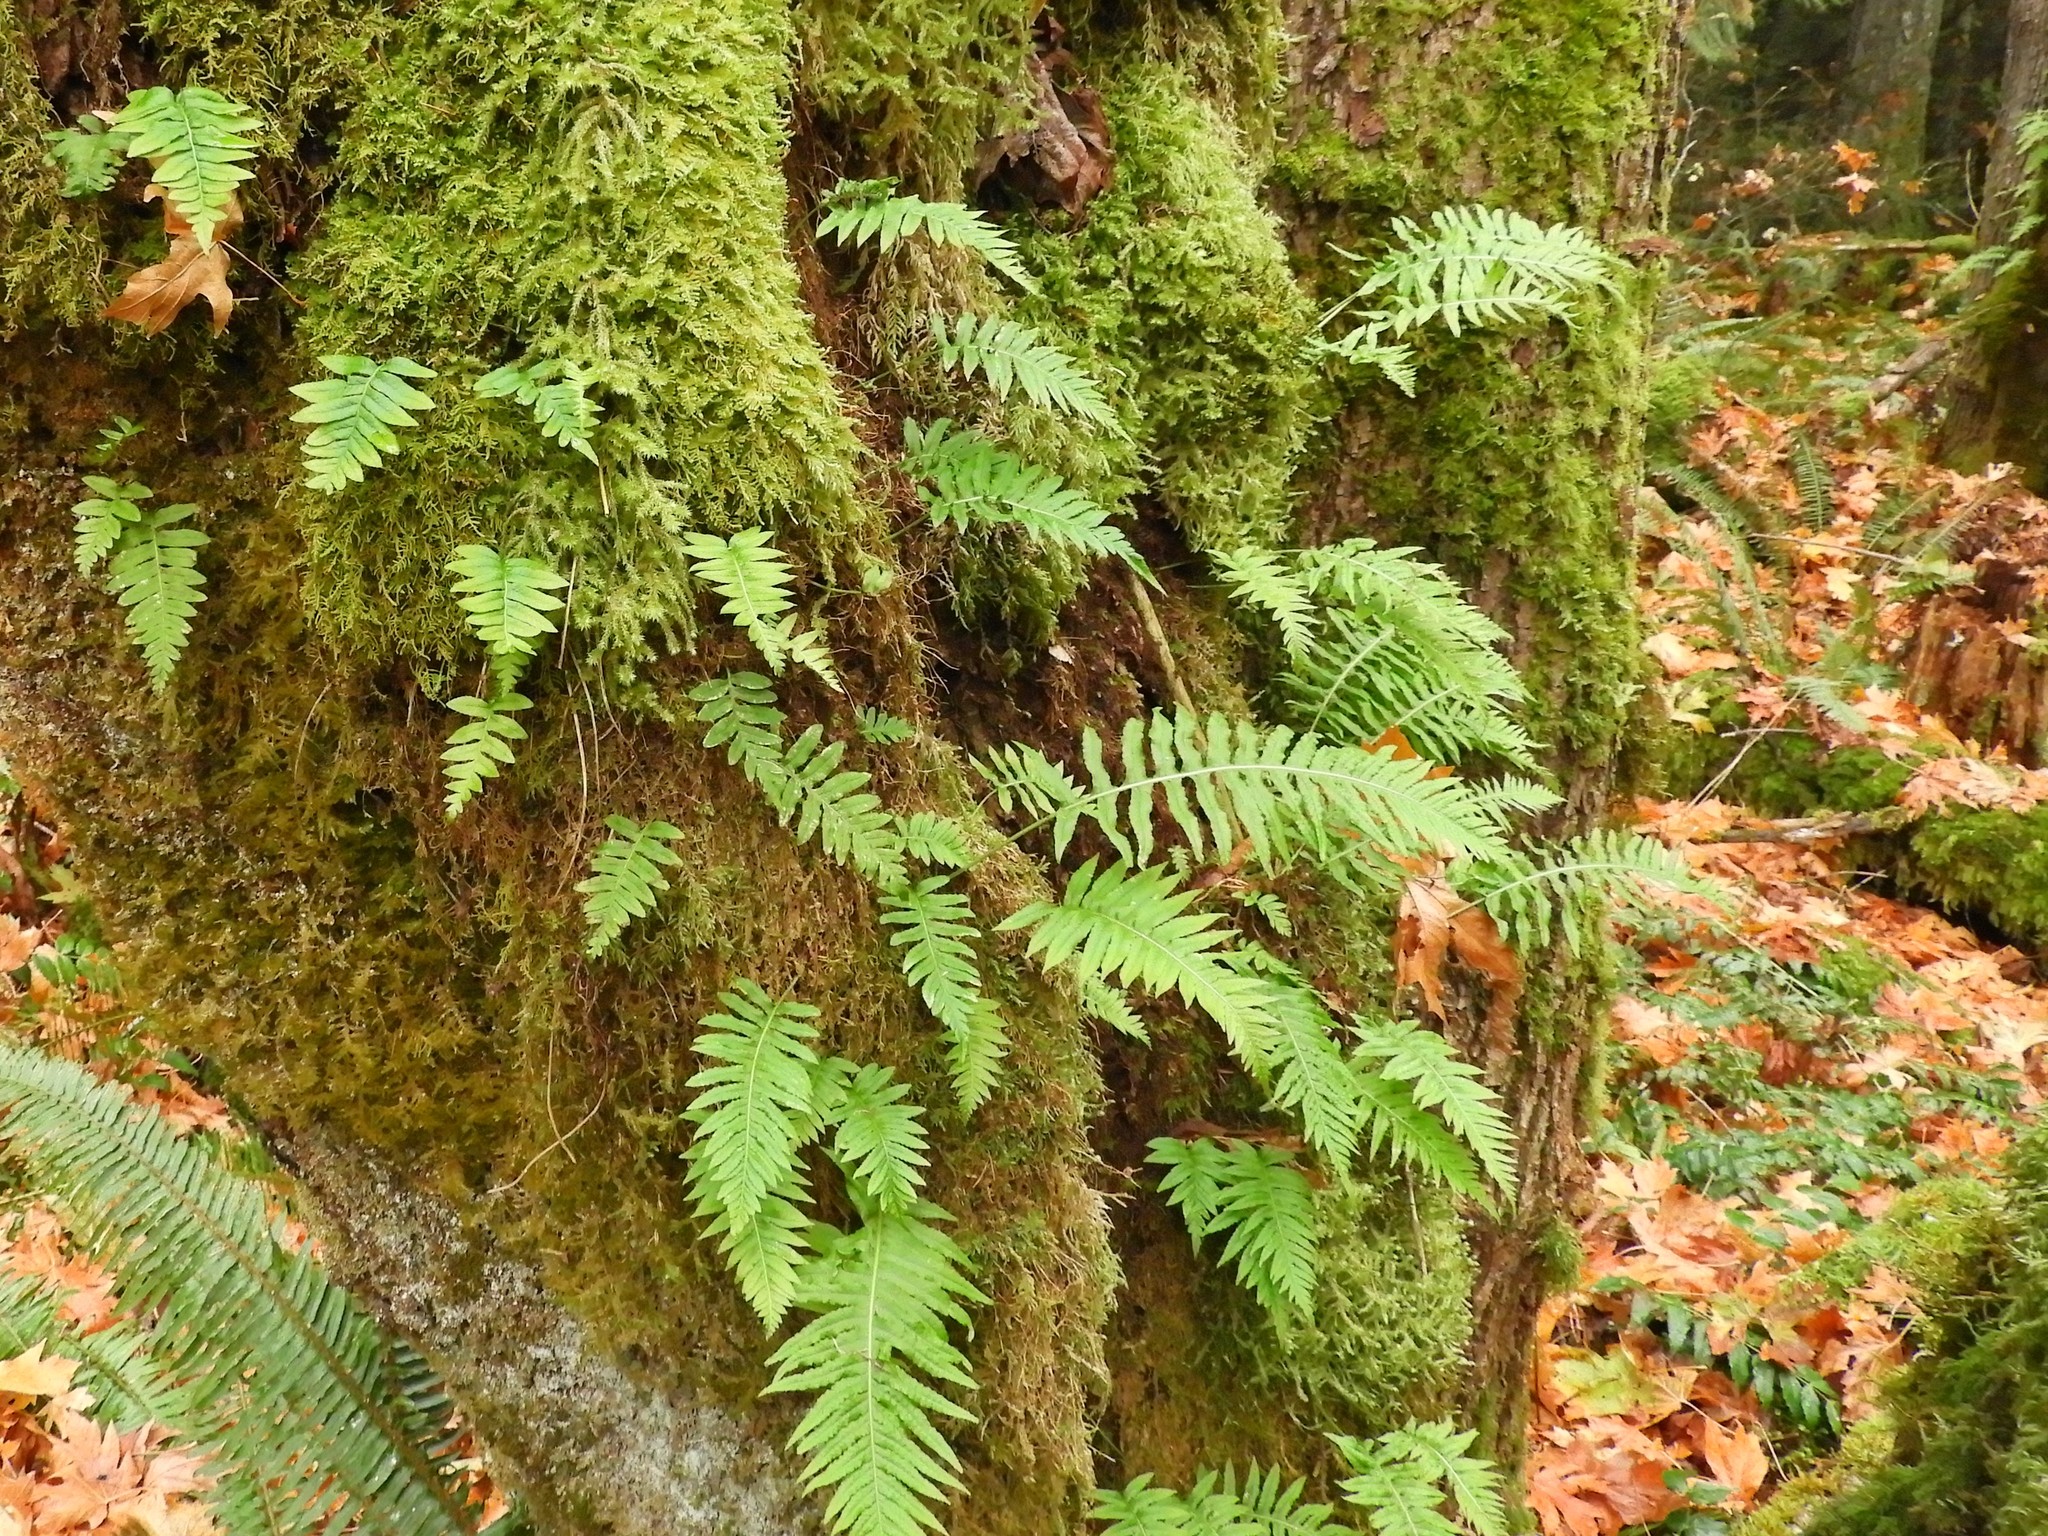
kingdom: Plantae
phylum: Tracheophyta
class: Polypodiopsida
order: Polypodiales
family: Polypodiaceae
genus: Polypodium
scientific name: Polypodium glycyrrhiza
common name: Licorice fern
